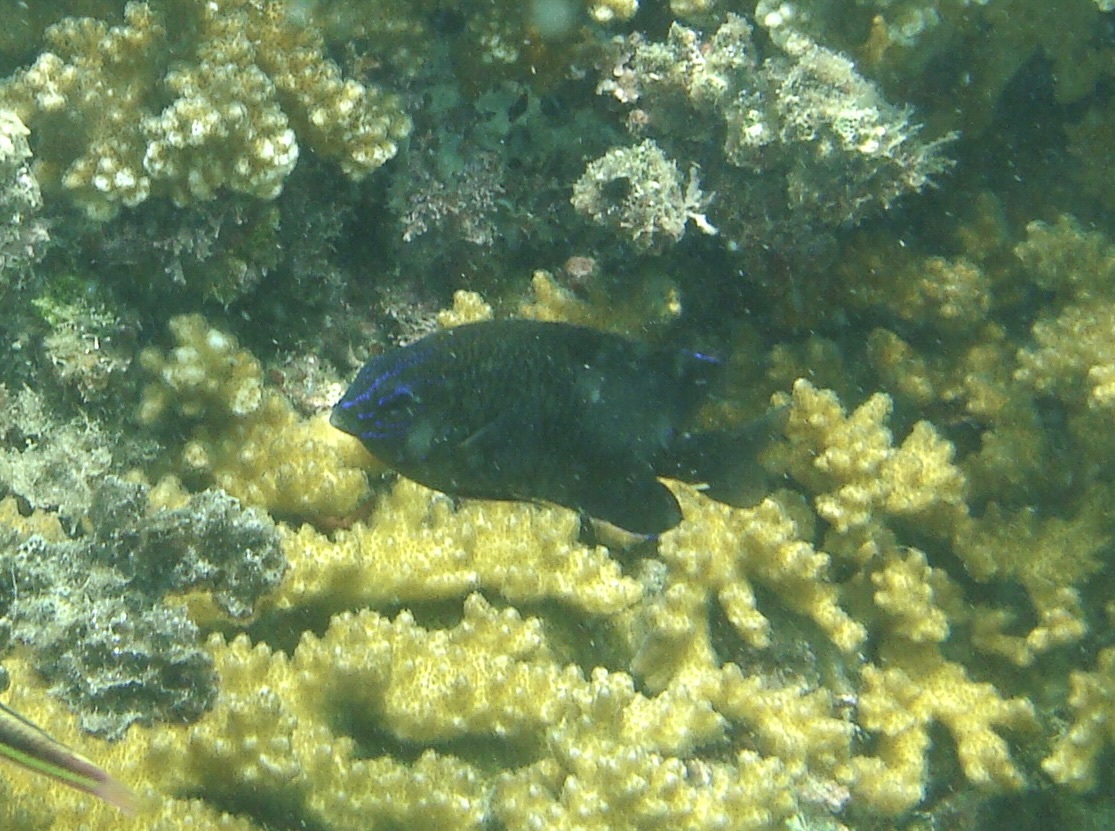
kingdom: Animalia
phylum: Chordata
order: Perciformes
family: Pomacentridae
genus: Stegastes
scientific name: Stegastes acapulcoensis
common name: Acapulco damselfish
